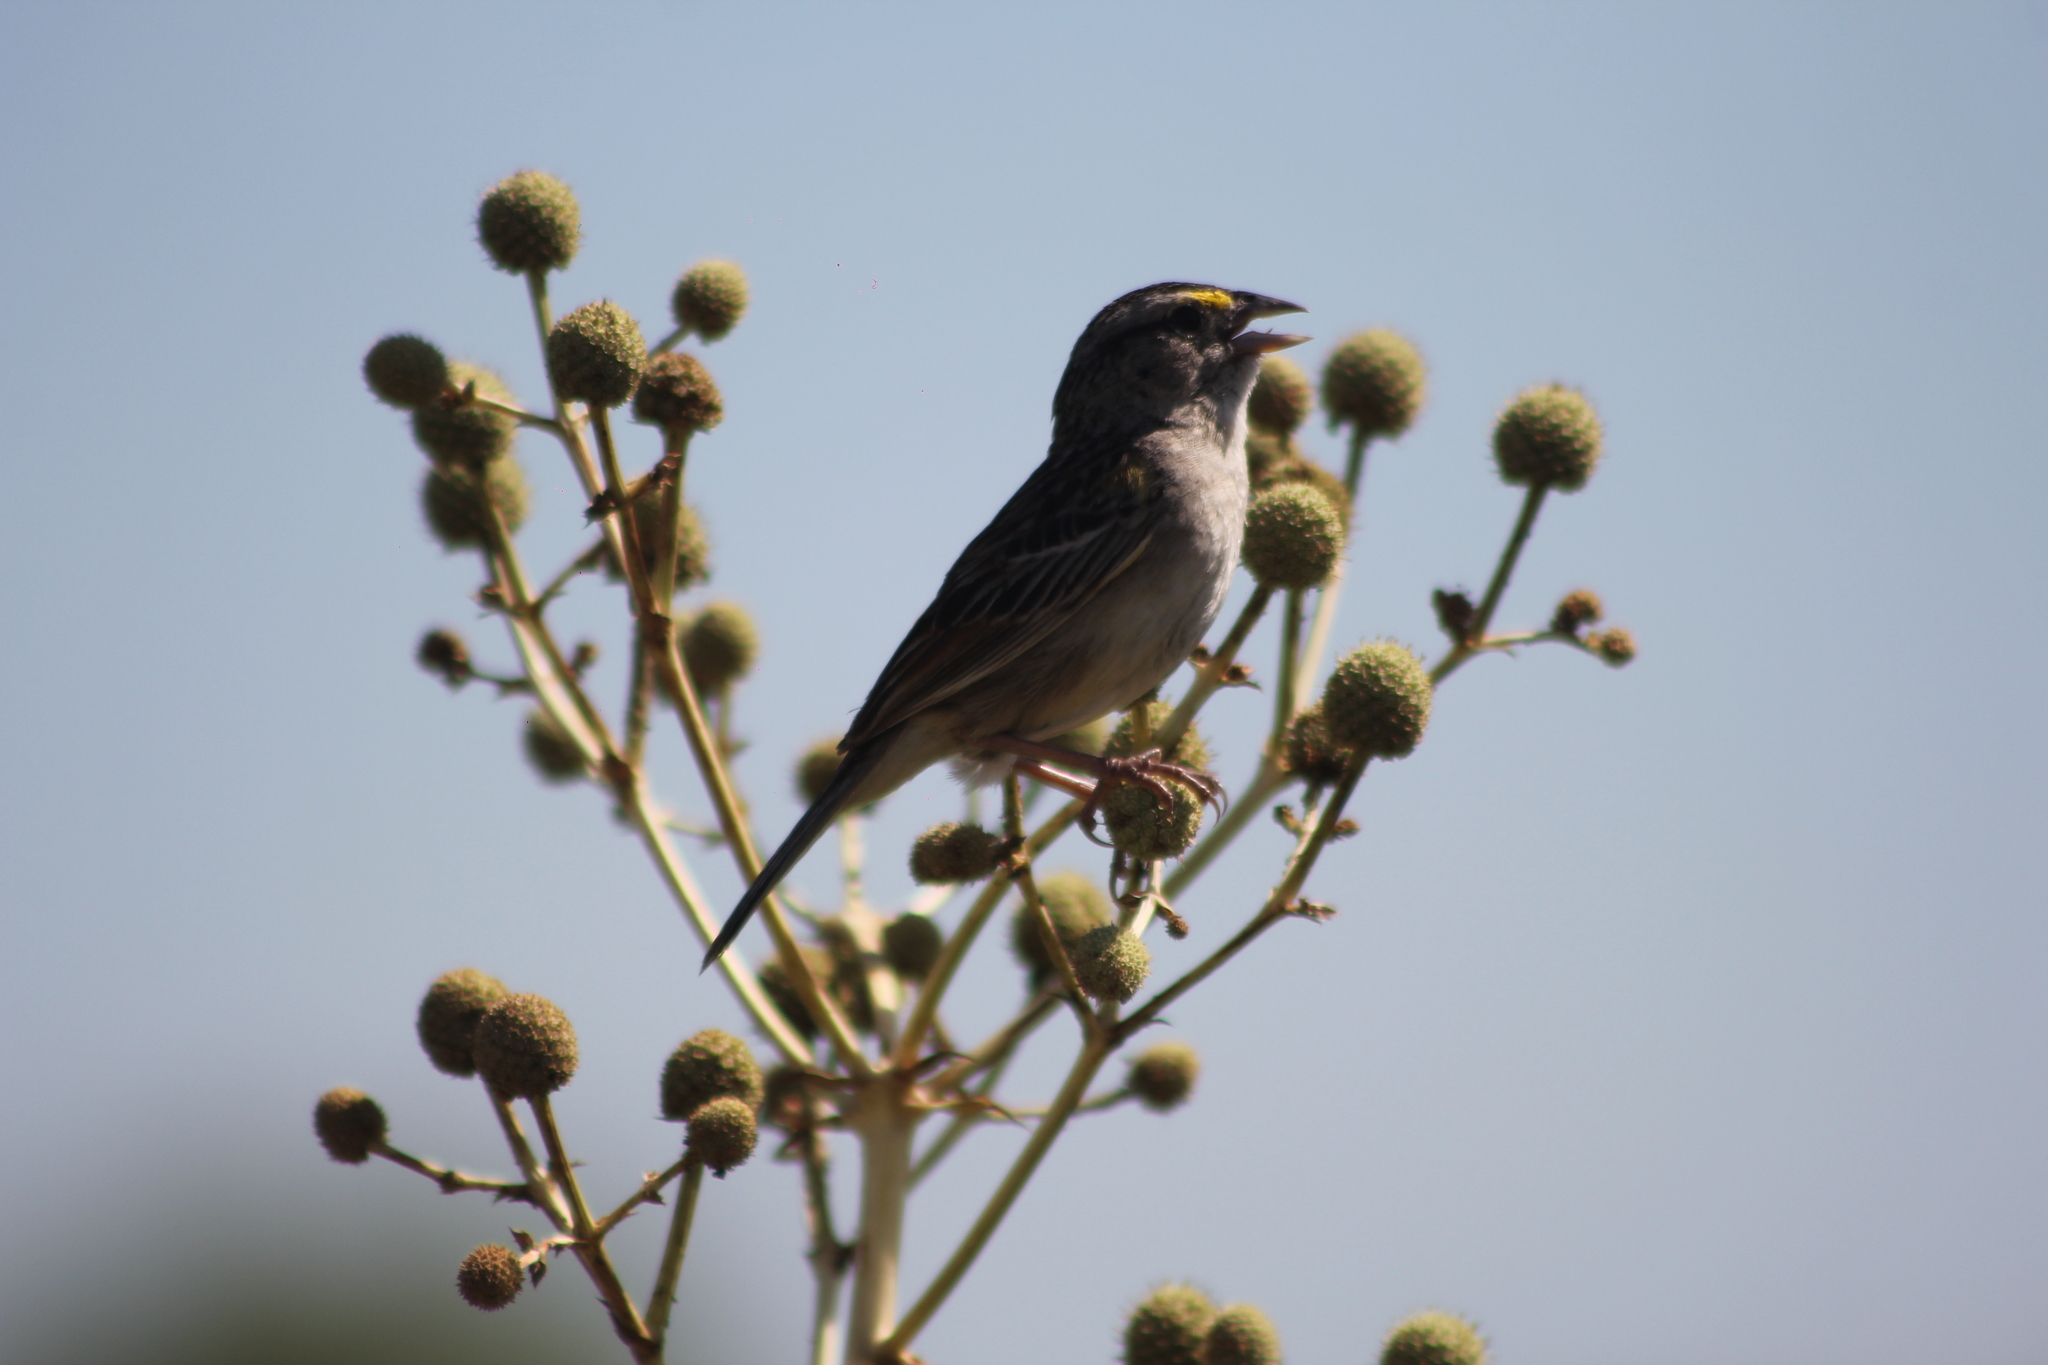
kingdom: Animalia
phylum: Chordata
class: Aves
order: Passeriformes
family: Passerellidae
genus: Ammodramus
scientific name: Ammodramus humeralis
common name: Grassland sparrow
